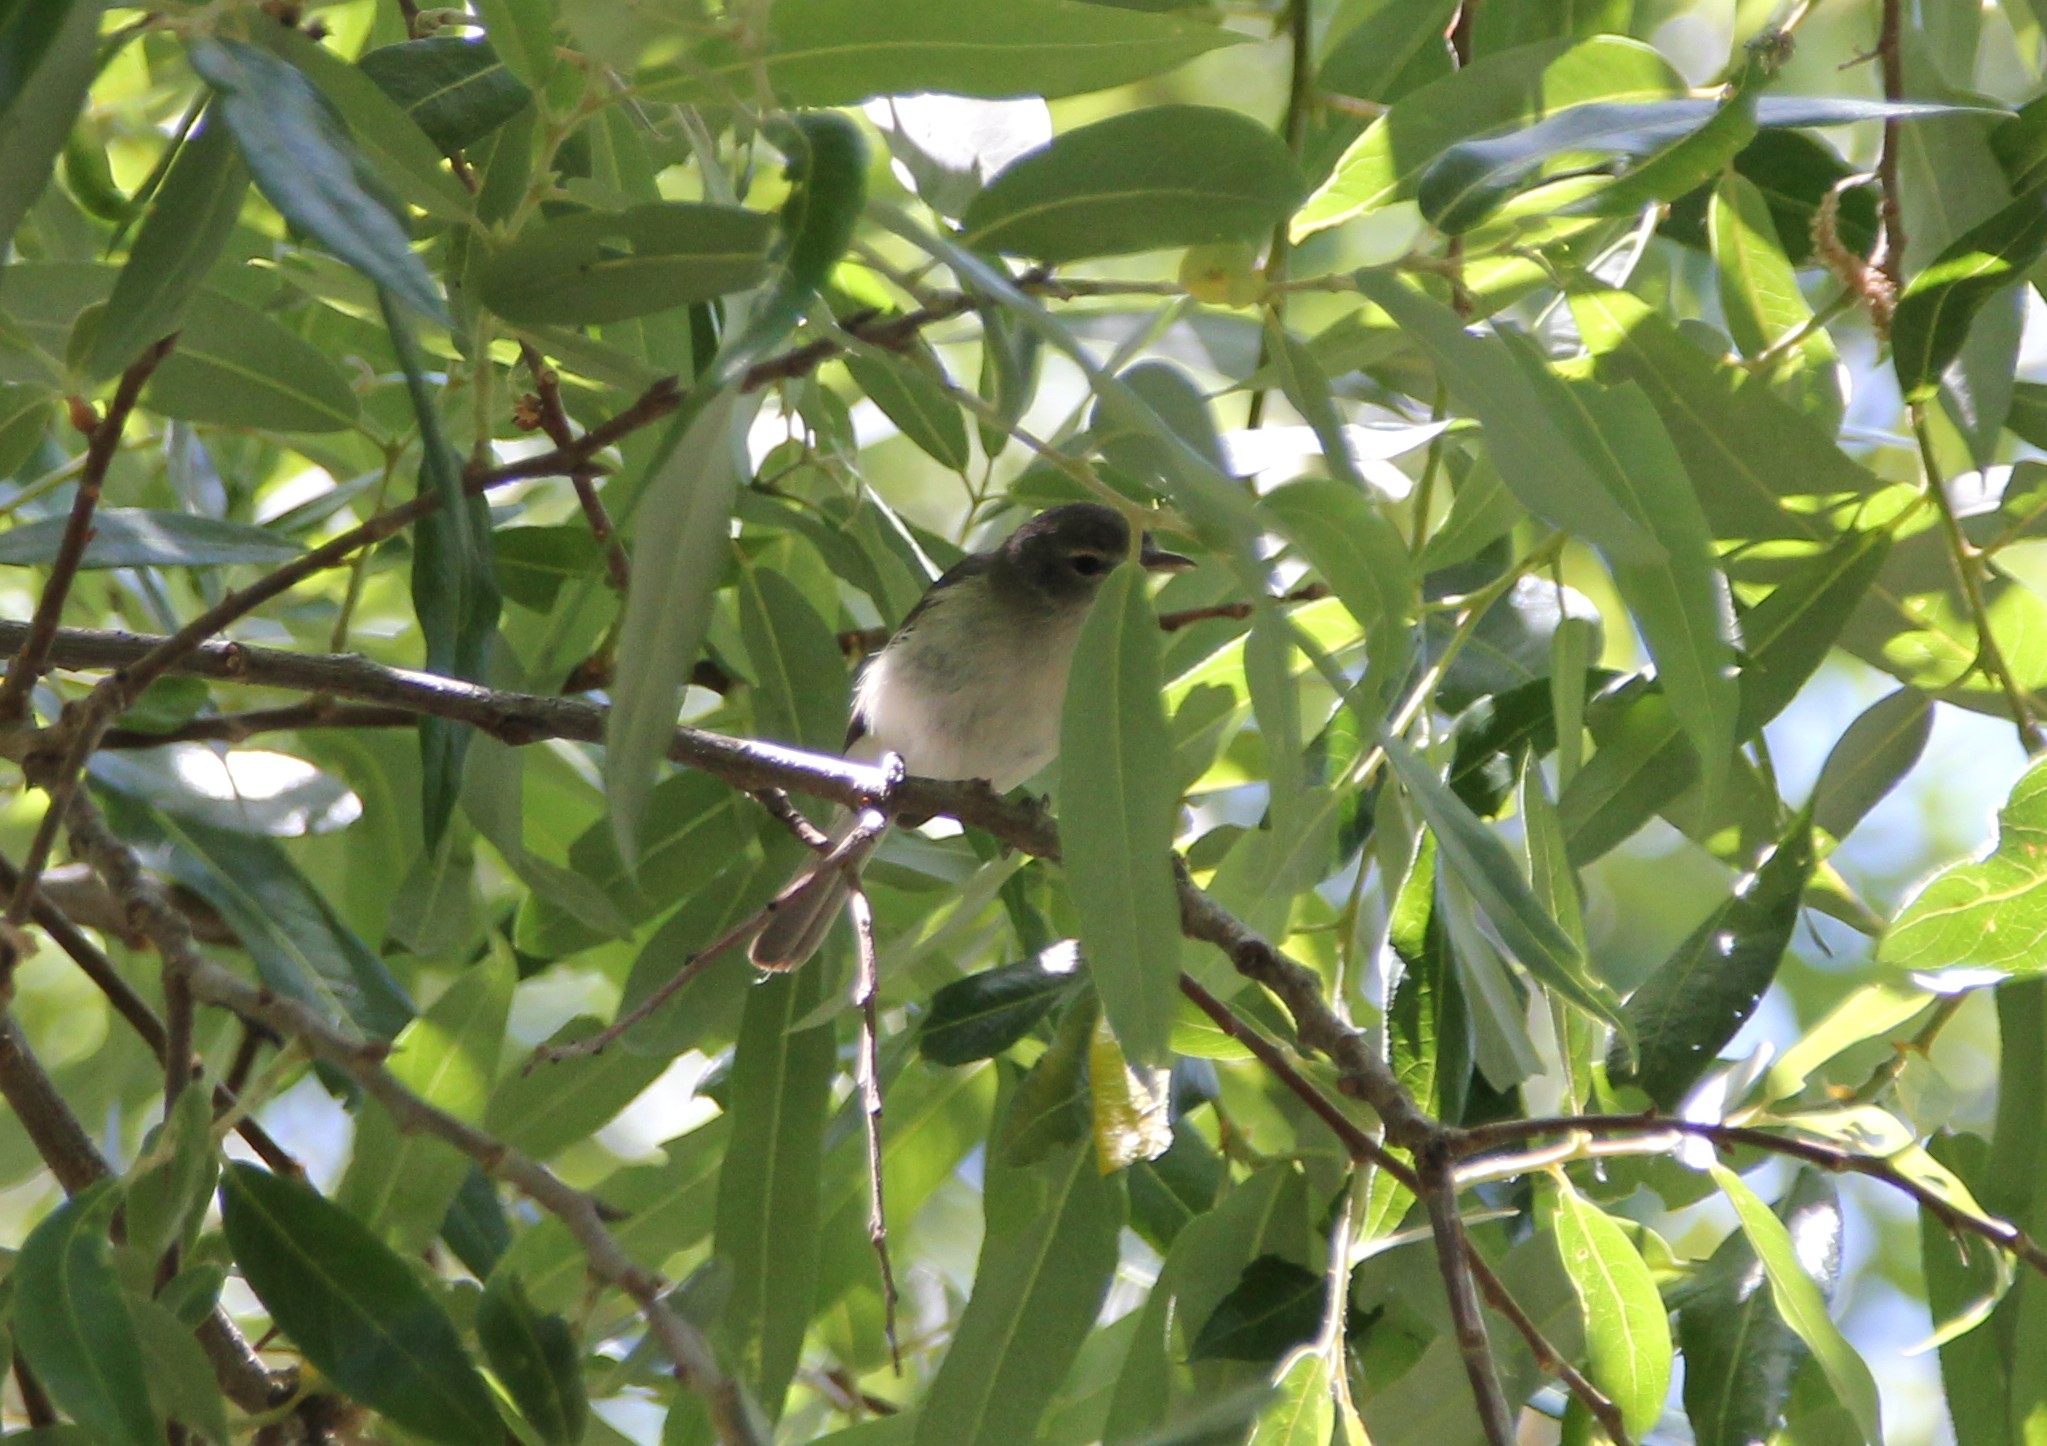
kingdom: Animalia
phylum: Chordata
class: Aves
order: Passeriformes
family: Vireonidae
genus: Vireo
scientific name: Vireo bellii
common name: Bell's vireo
